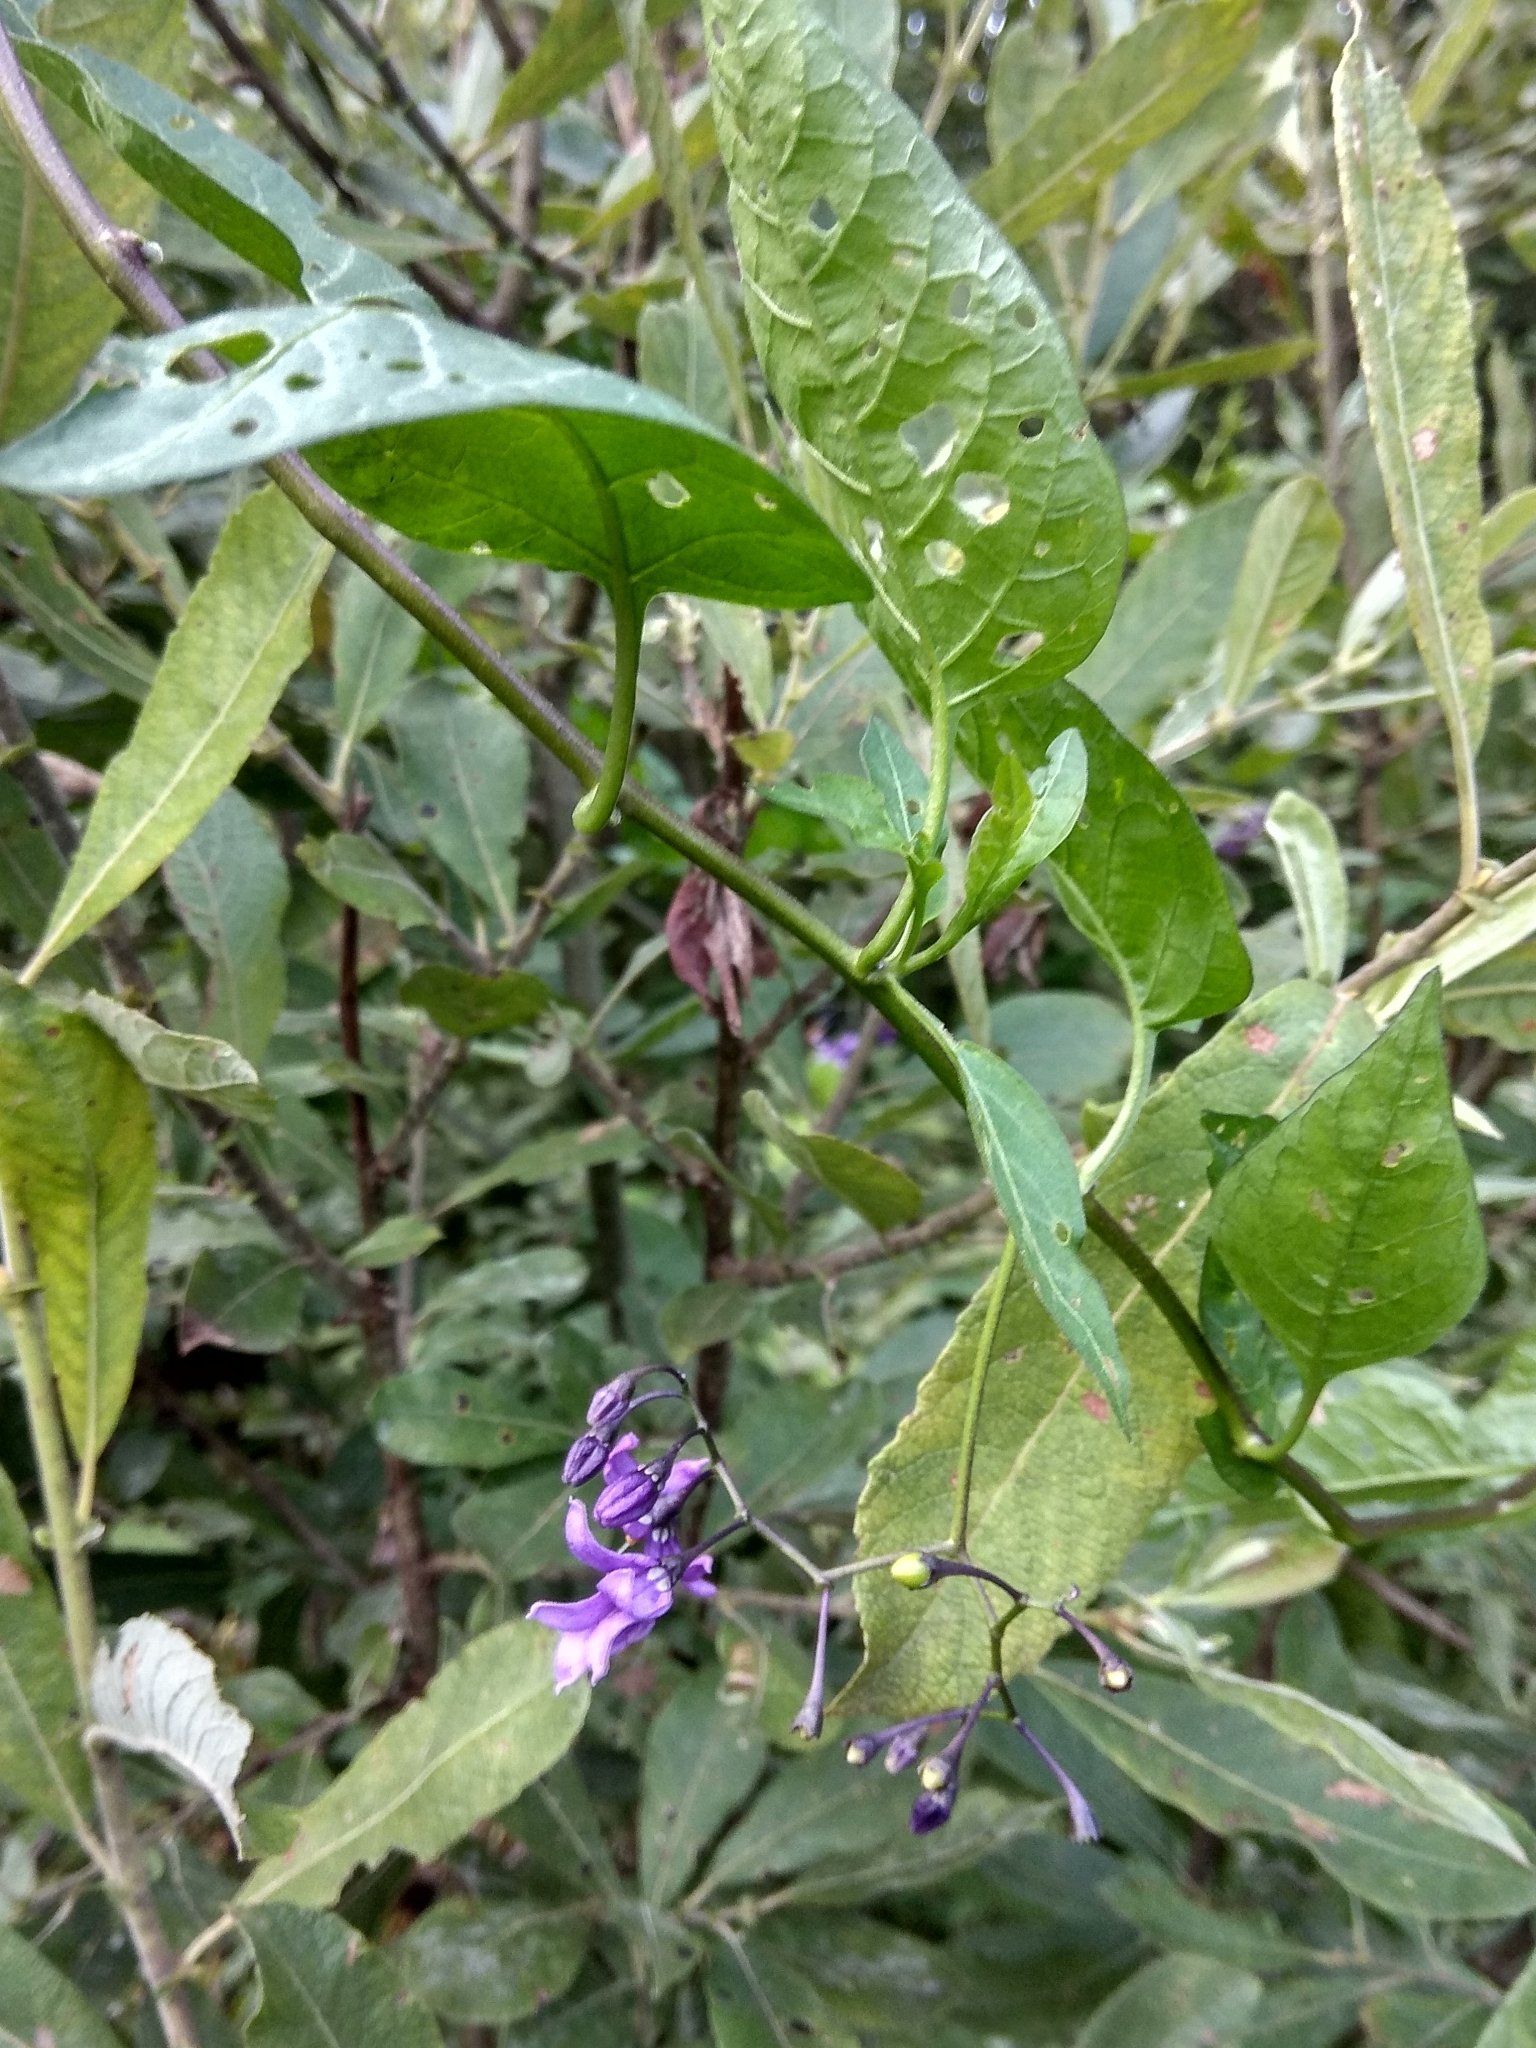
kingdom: Plantae
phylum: Tracheophyta
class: Magnoliopsida
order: Solanales
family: Solanaceae
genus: Solanum
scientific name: Solanum dulcamara
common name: Climbing nightshade
